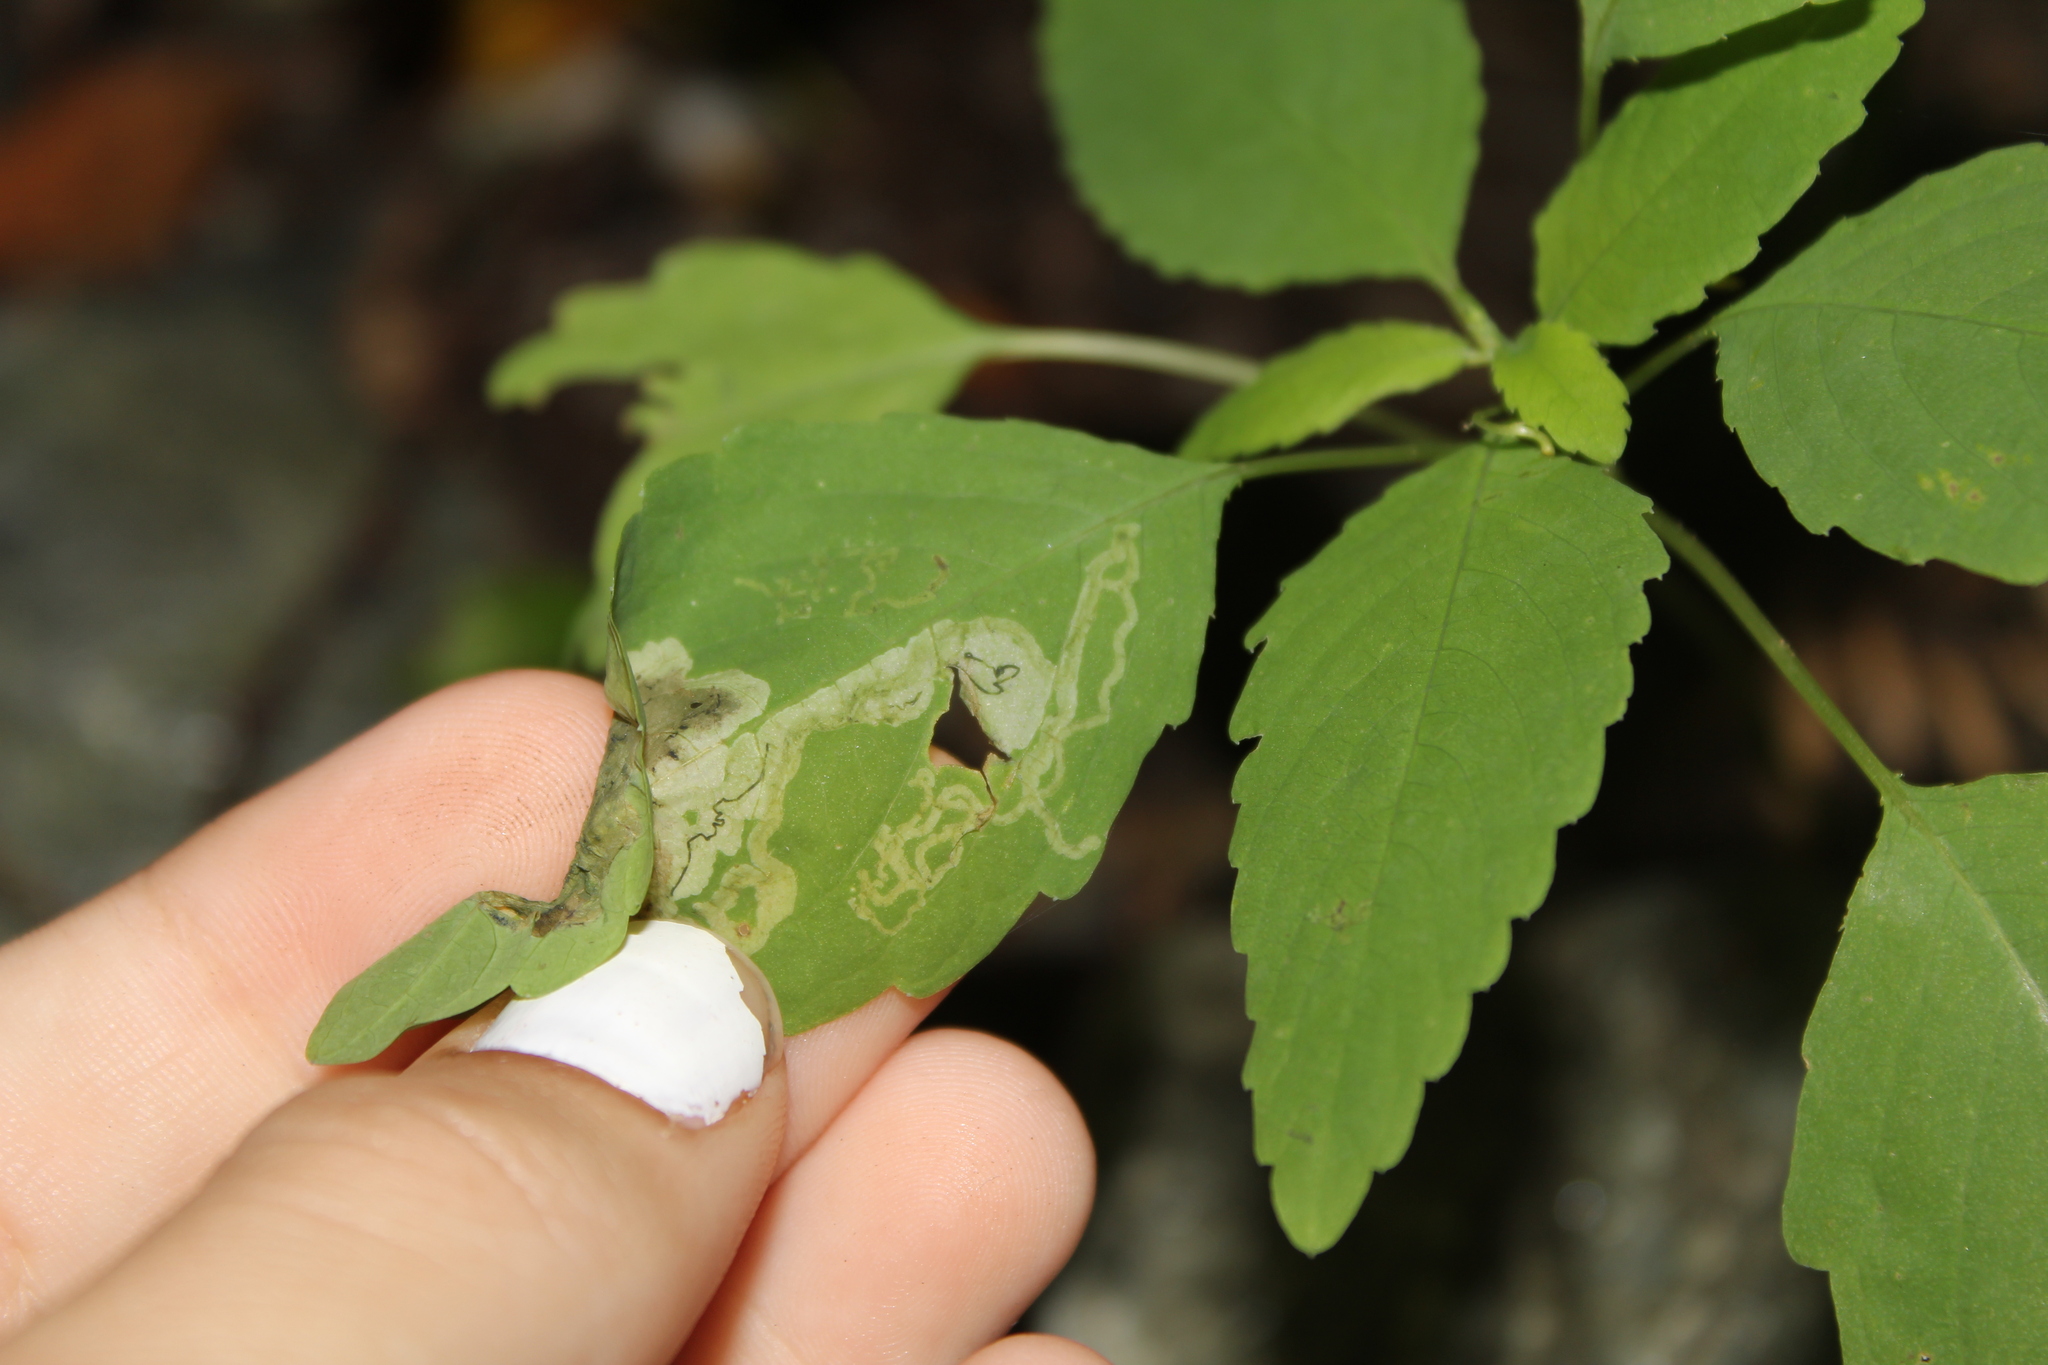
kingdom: Animalia
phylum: Arthropoda
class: Insecta
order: Diptera
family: Agromyzidae
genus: Phytoliriomyza
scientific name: Phytoliriomyza melampyga
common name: Jewelweed leaf-miner fly
